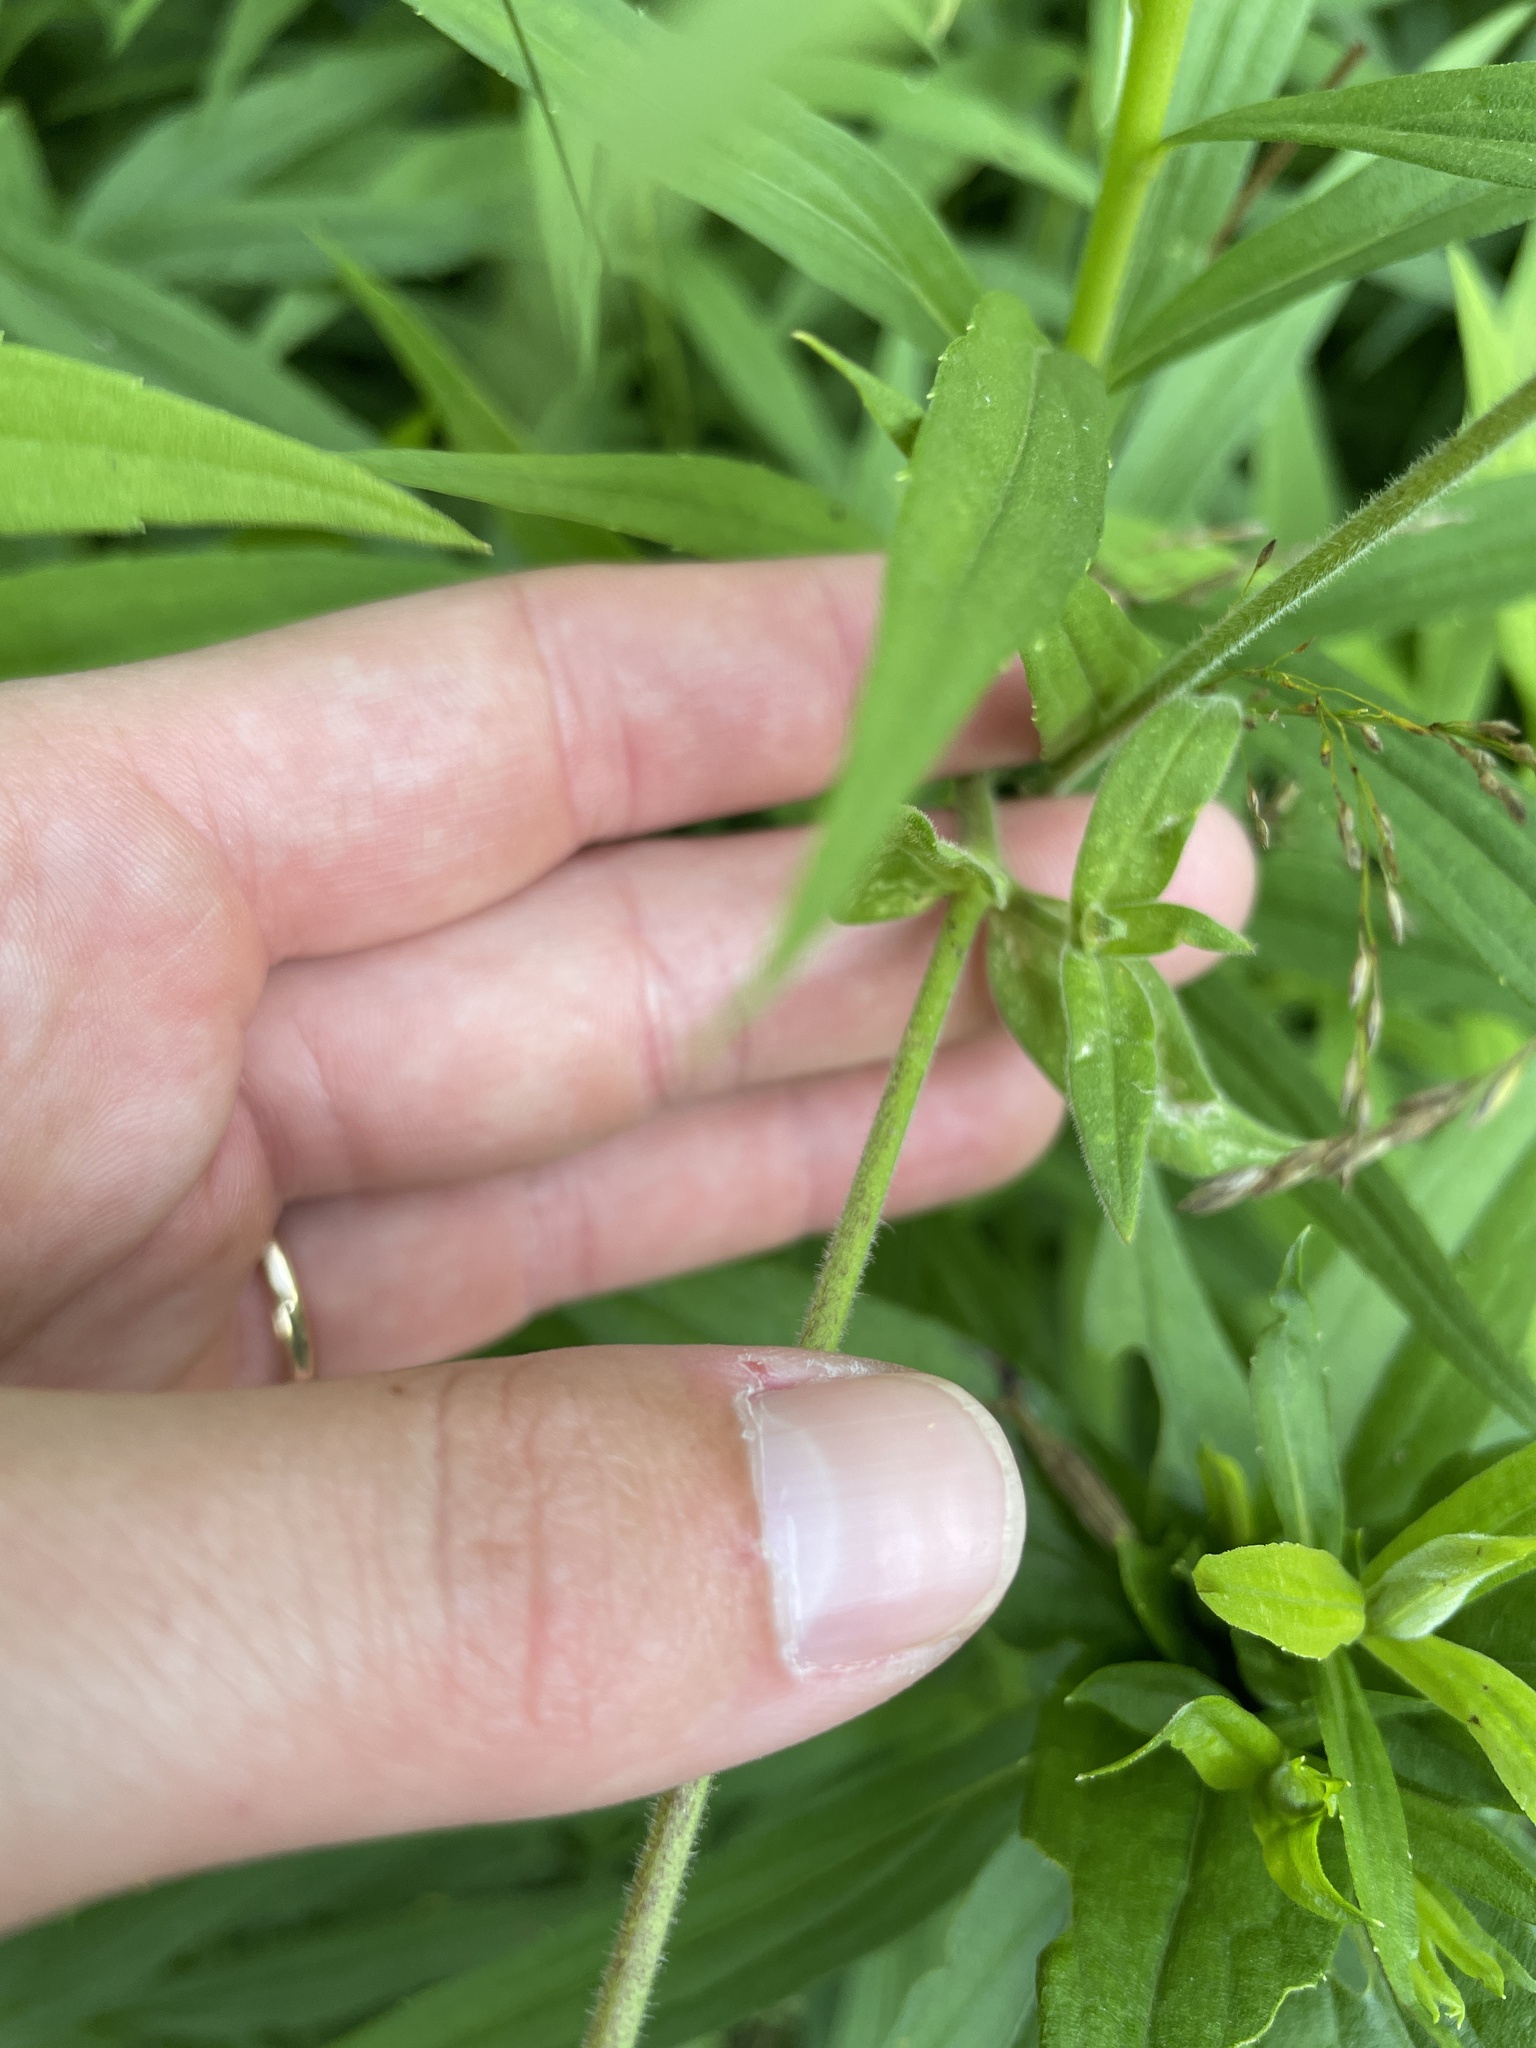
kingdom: Plantae
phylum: Tracheophyta
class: Magnoliopsida
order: Caryophyllales
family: Caryophyllaceae
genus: Silene
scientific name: Silene latifolia
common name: White campion
